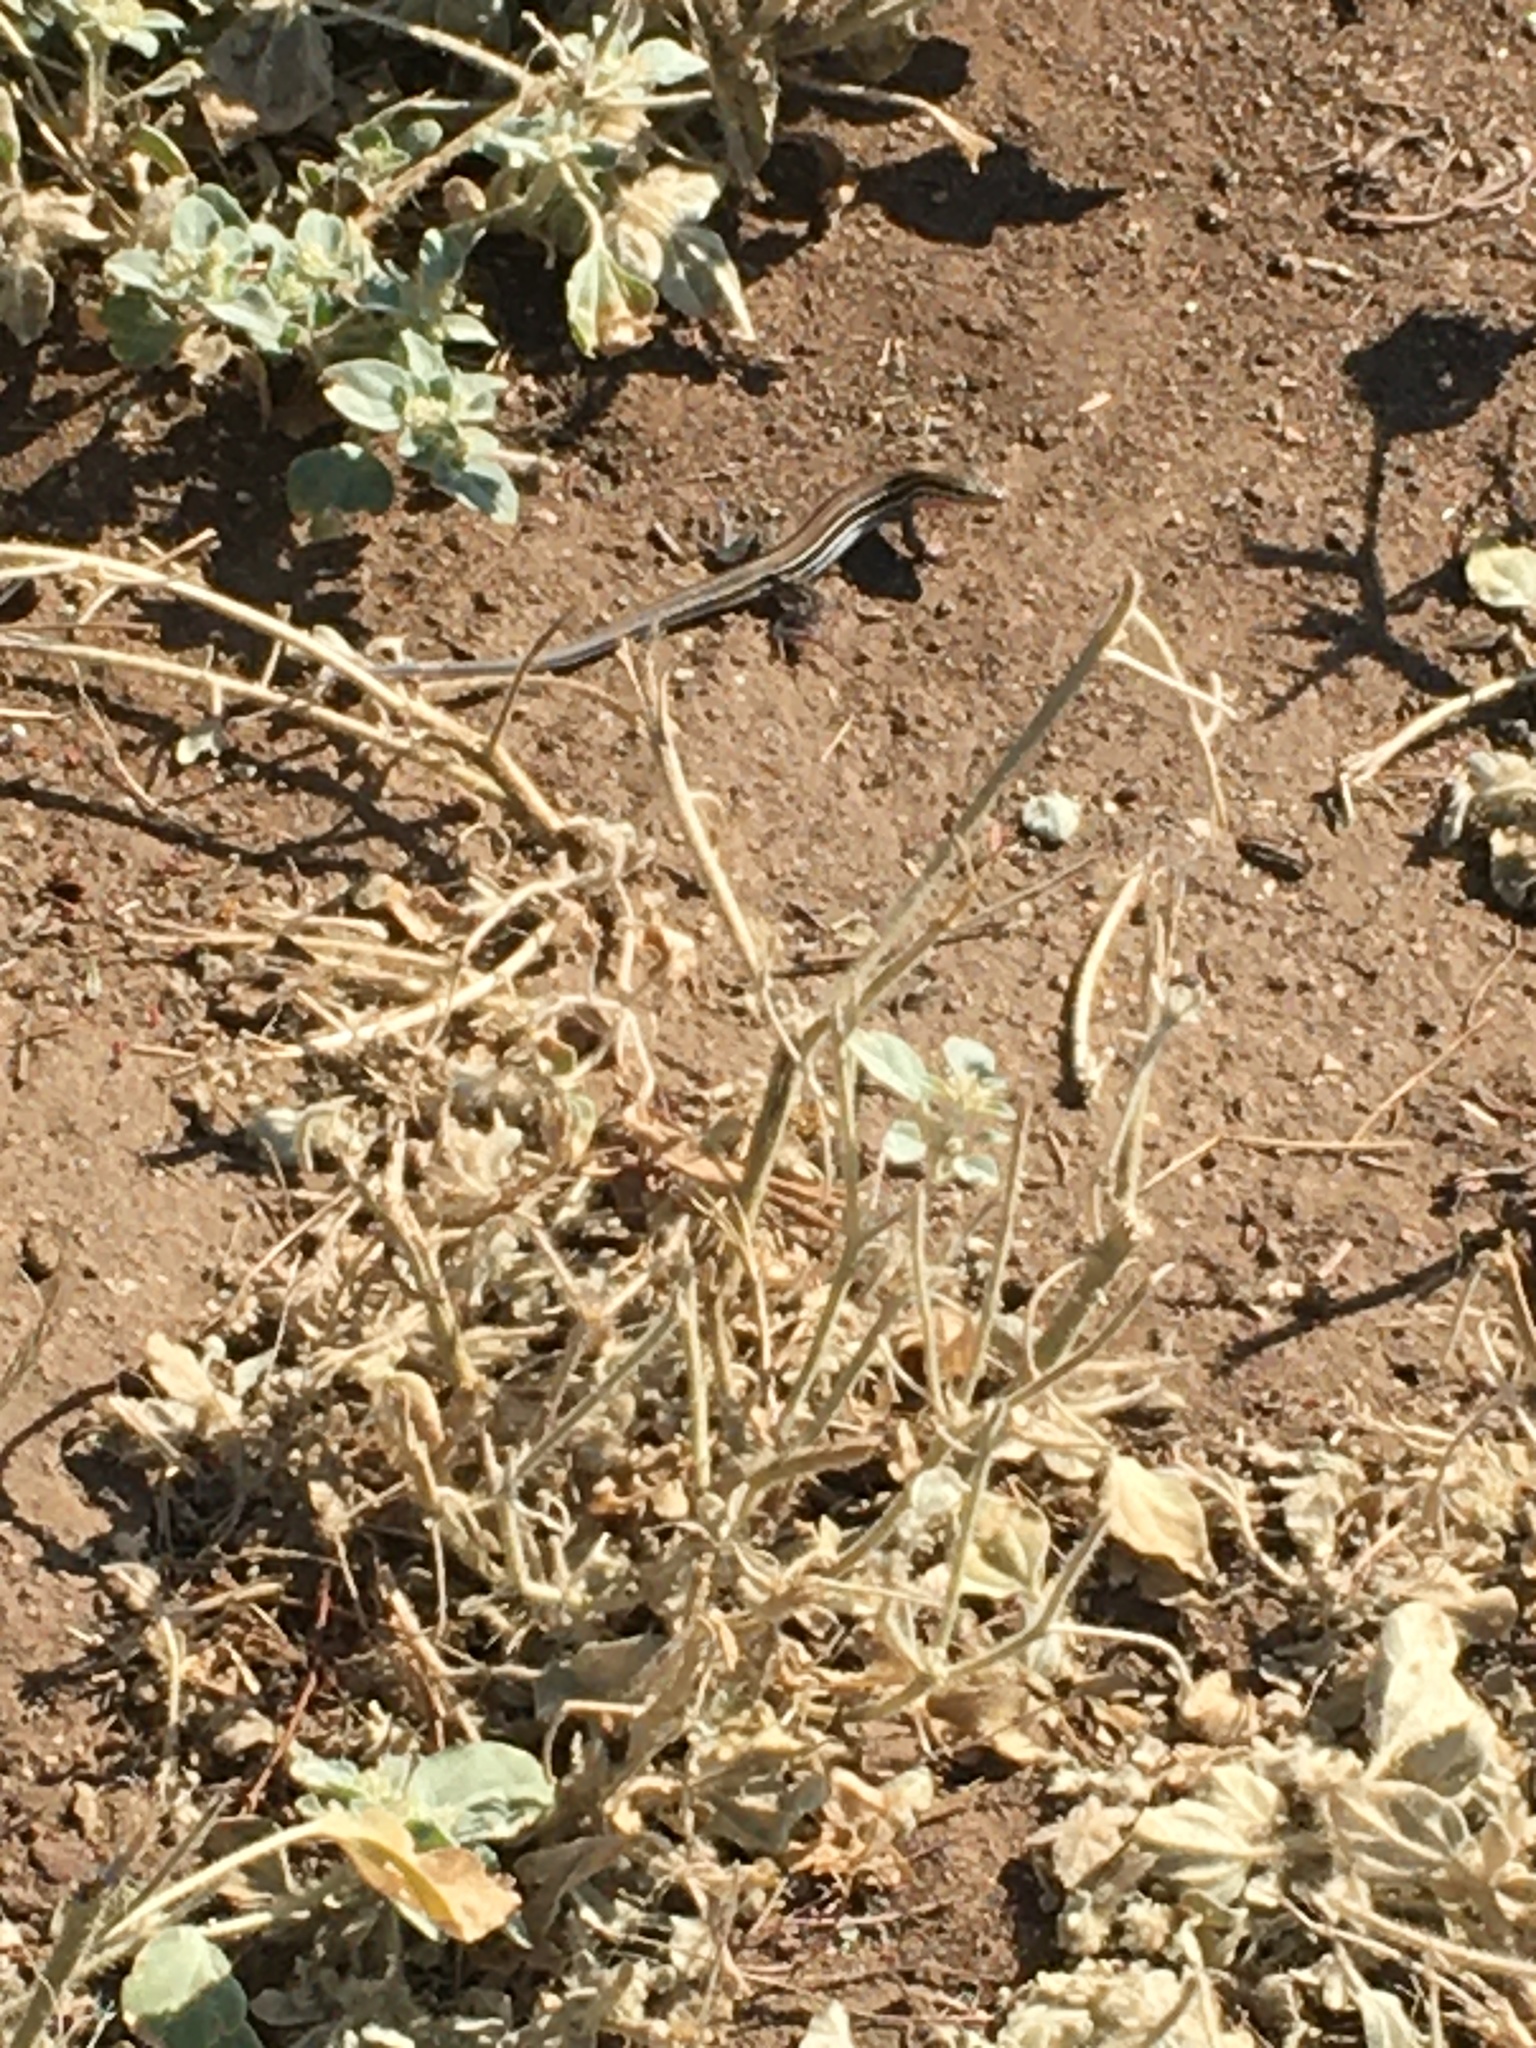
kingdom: Animalia
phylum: Chordata
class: Squamata
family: Teiidae
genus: Aspidoscelis
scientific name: Aspidoscelis hyperythrus
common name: Orange-throated race-runner
